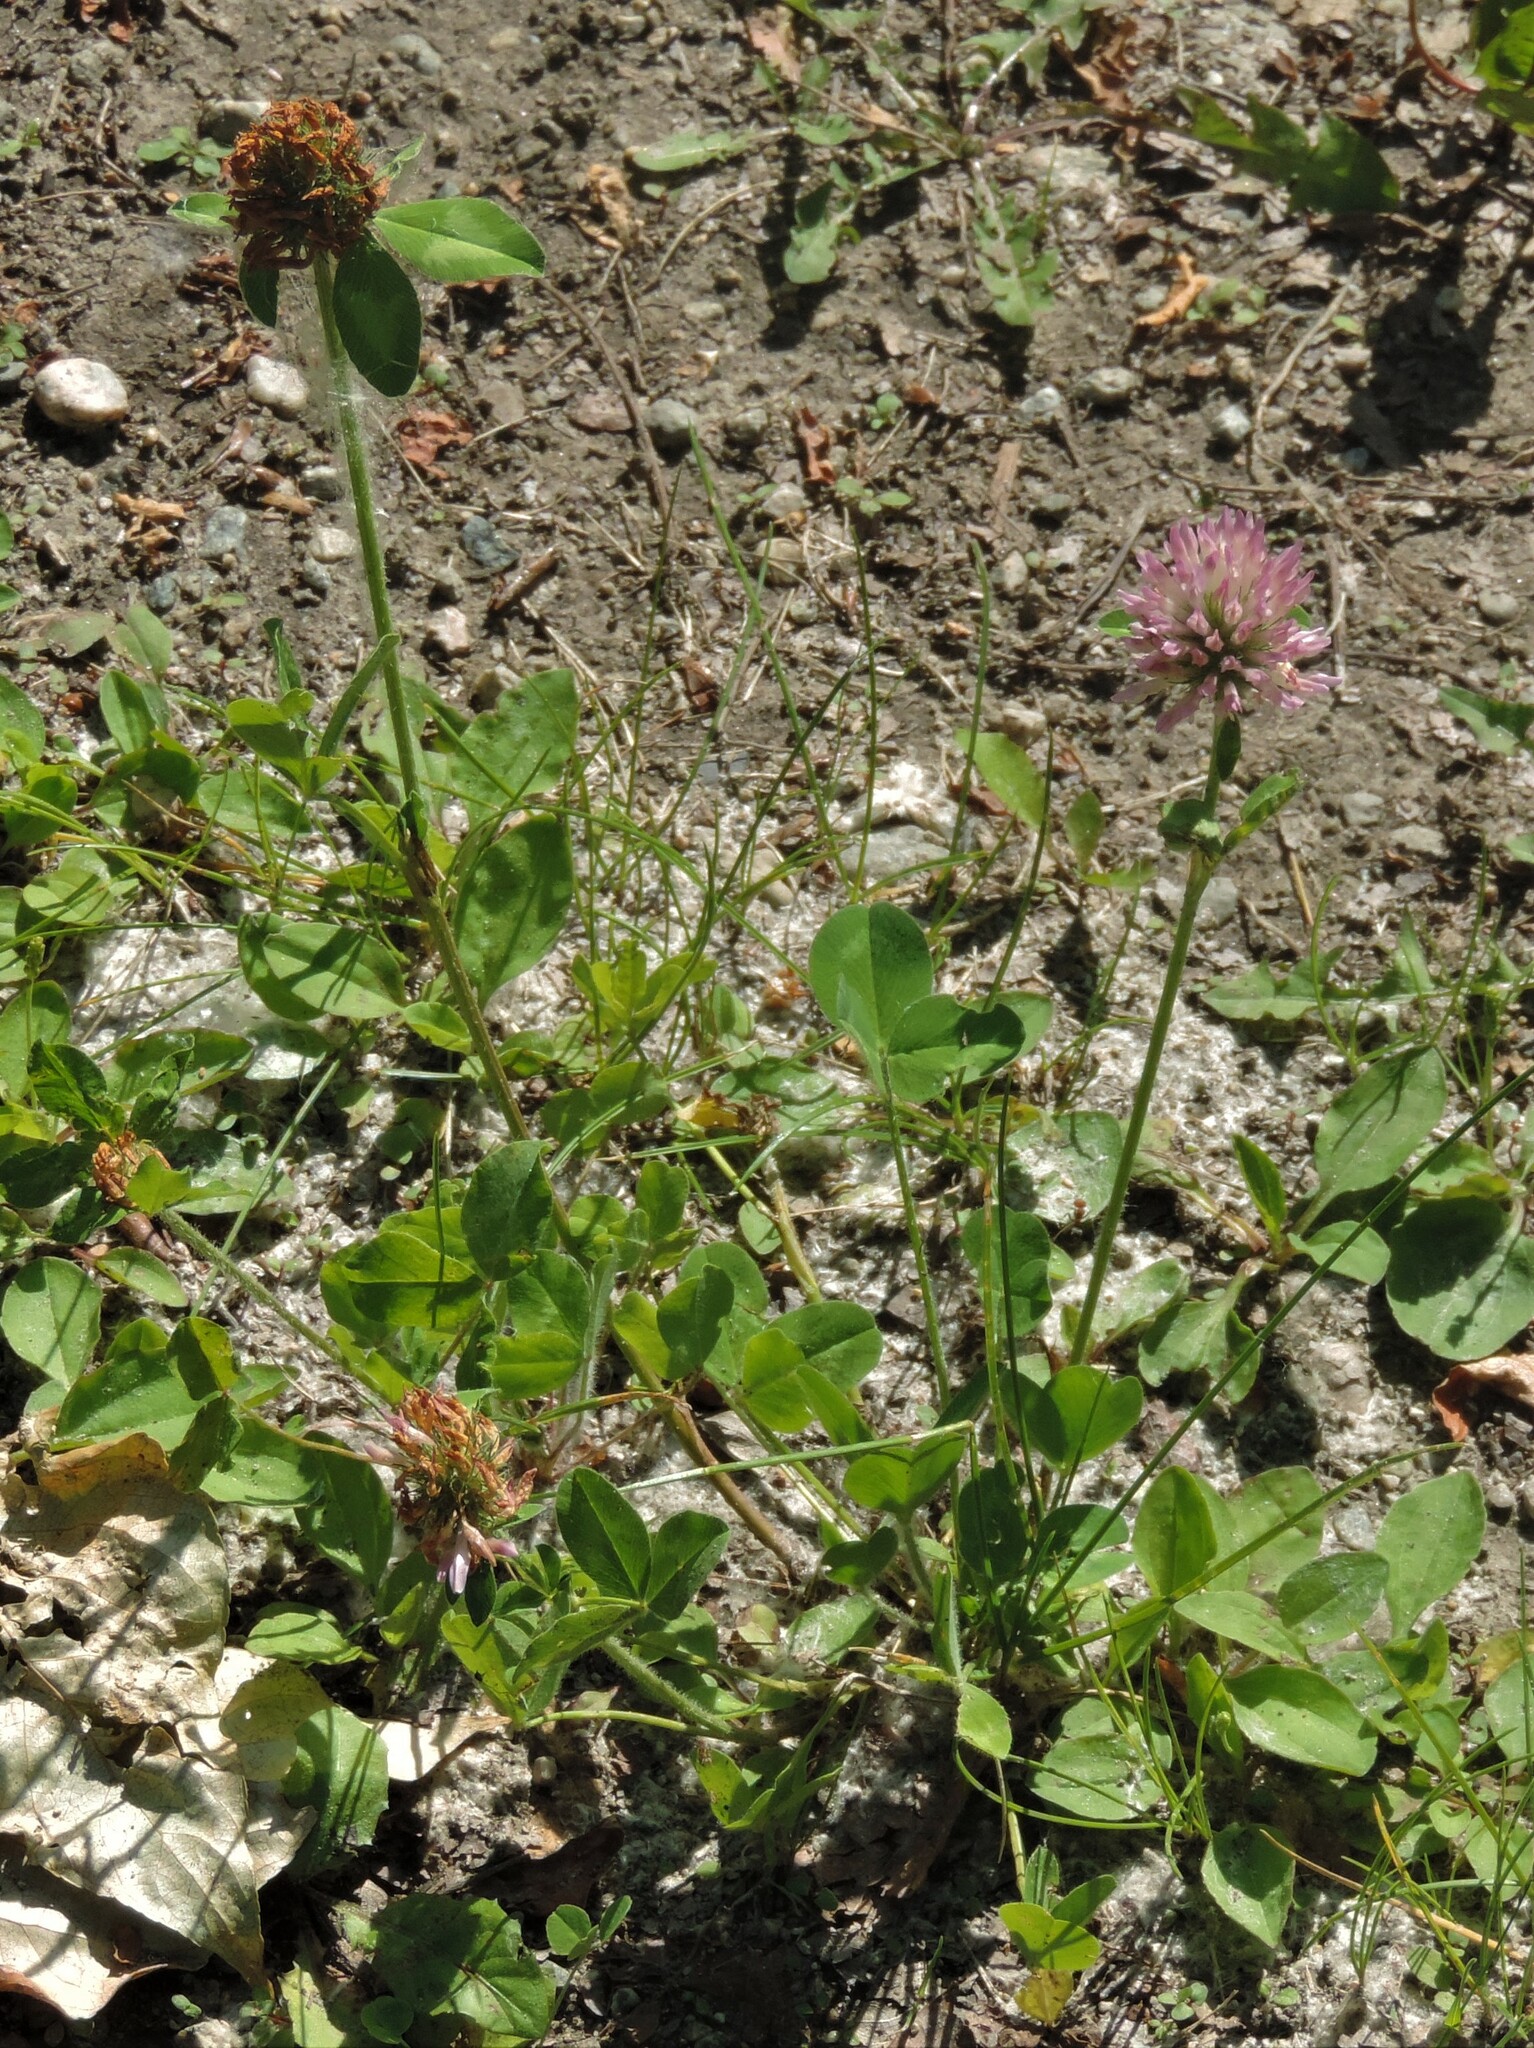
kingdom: Plantae
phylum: Tracheophyta
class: Magnoliopsida
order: Fabales
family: Fabaceae
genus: Trifolium
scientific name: Trifolium pratense
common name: Red clover
